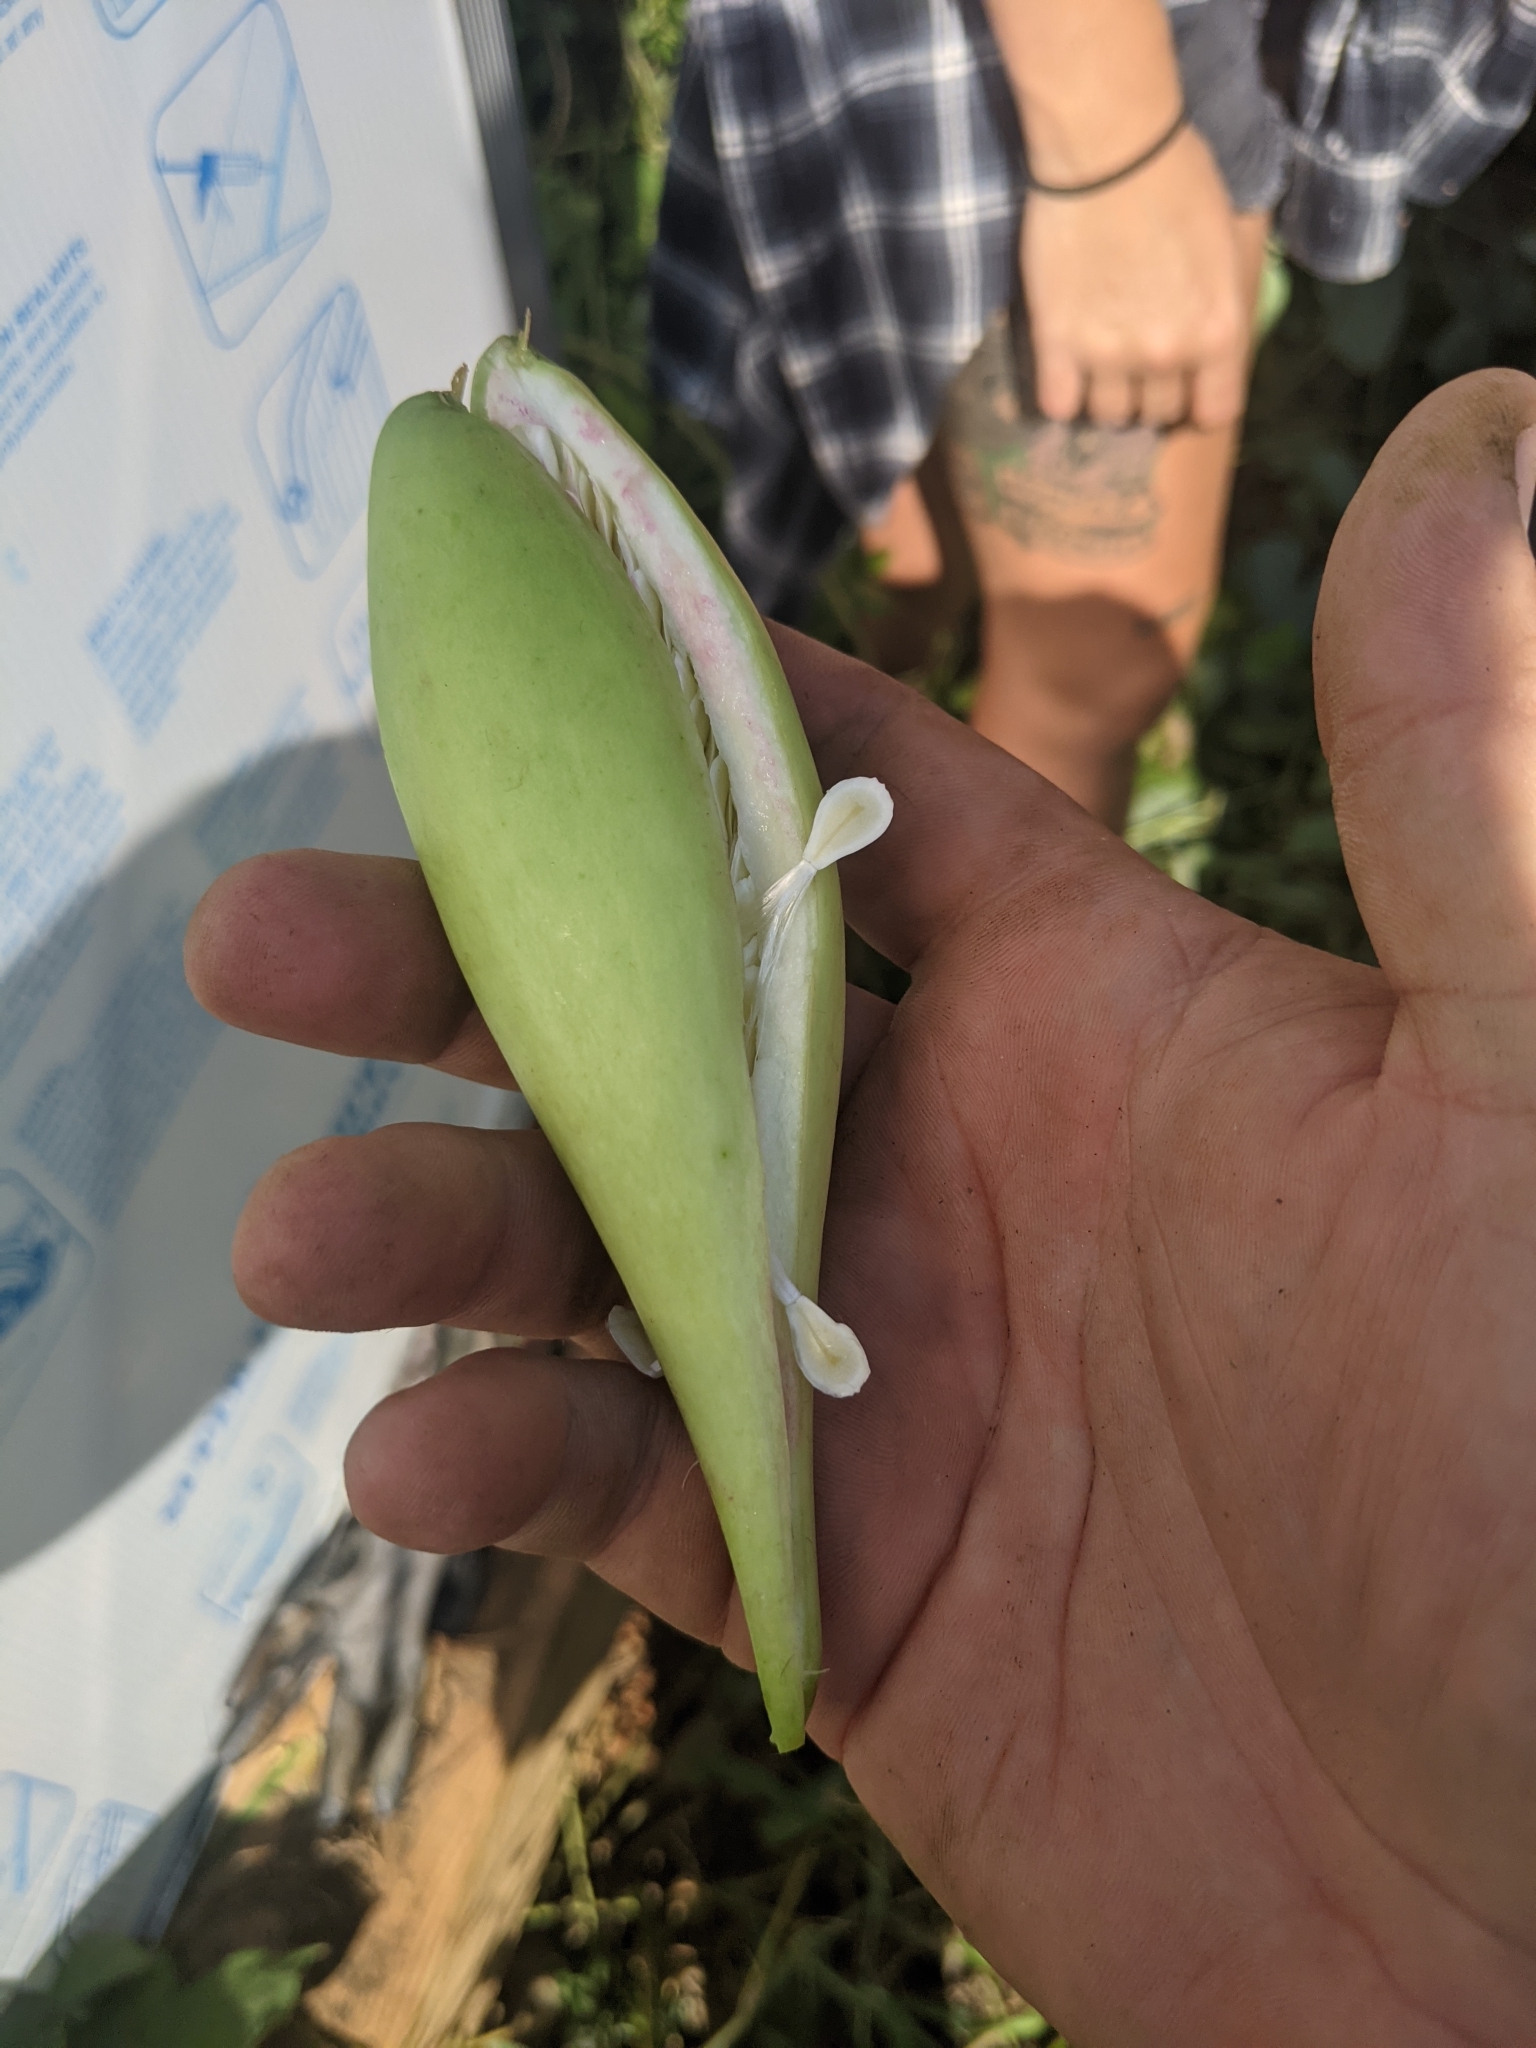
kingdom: Plantae
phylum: Tracheophyta
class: Magnoliopsida
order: Gentianales
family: Apocynaceae
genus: Cynanchum
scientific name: Cynanchum laeve
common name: Sandvine
